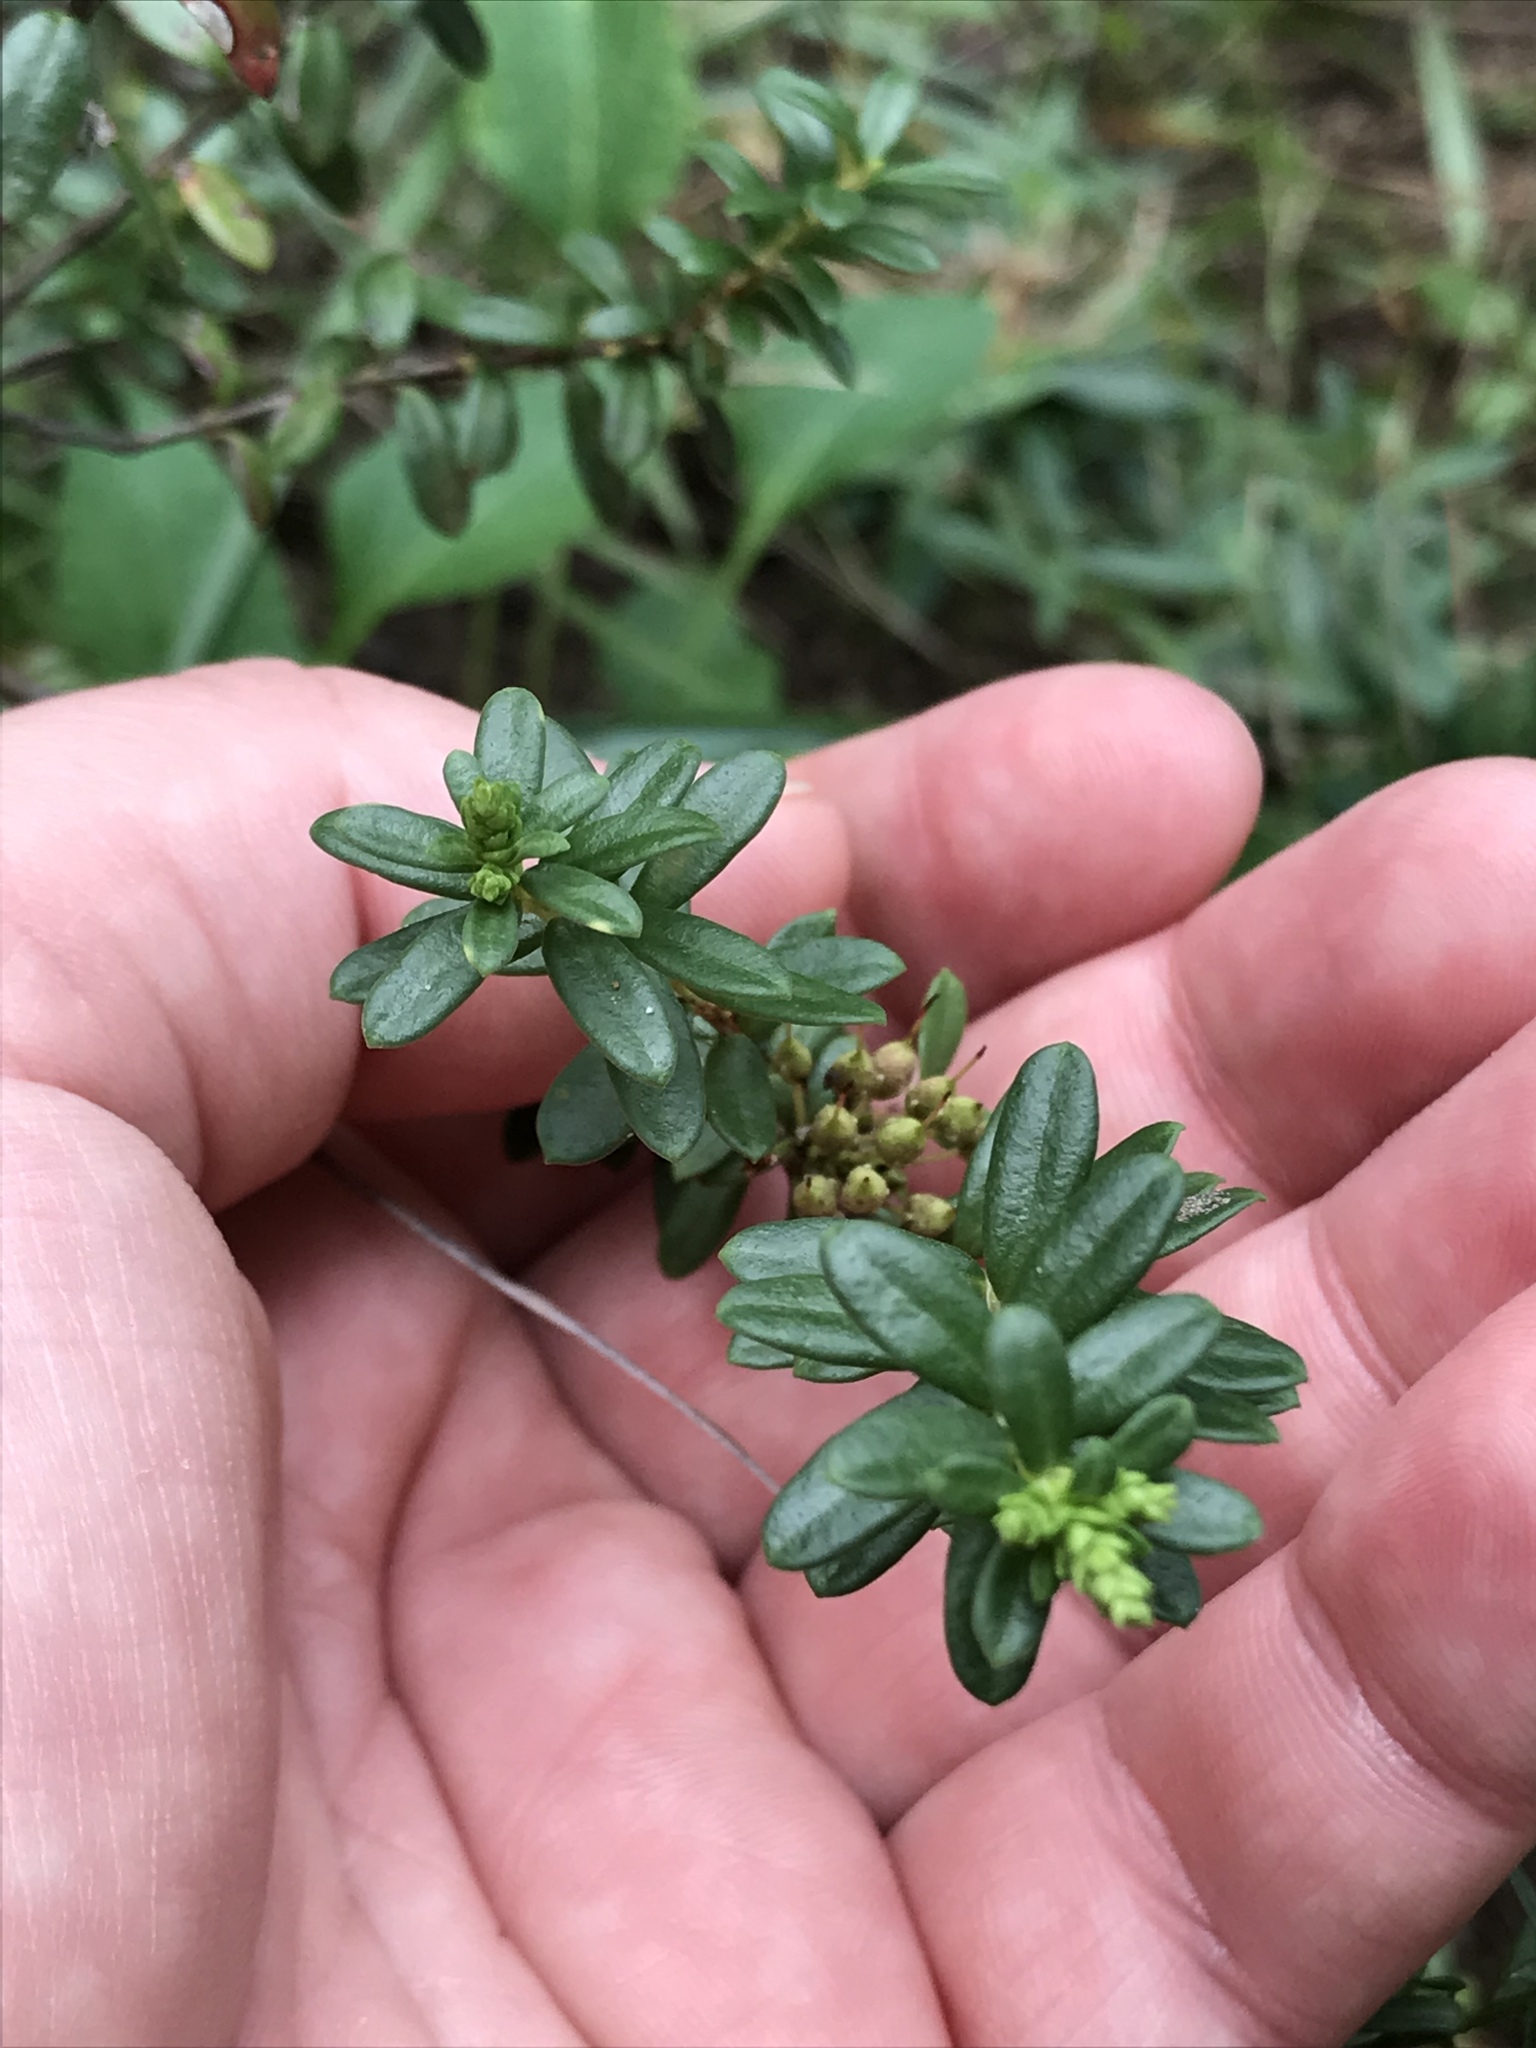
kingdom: Plantae
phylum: Tracheophyta
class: Magnoliopsida
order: Ericales
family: Ericaceae
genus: Kalmia
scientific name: Kalmia buxifolia
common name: Sandmyrtle
